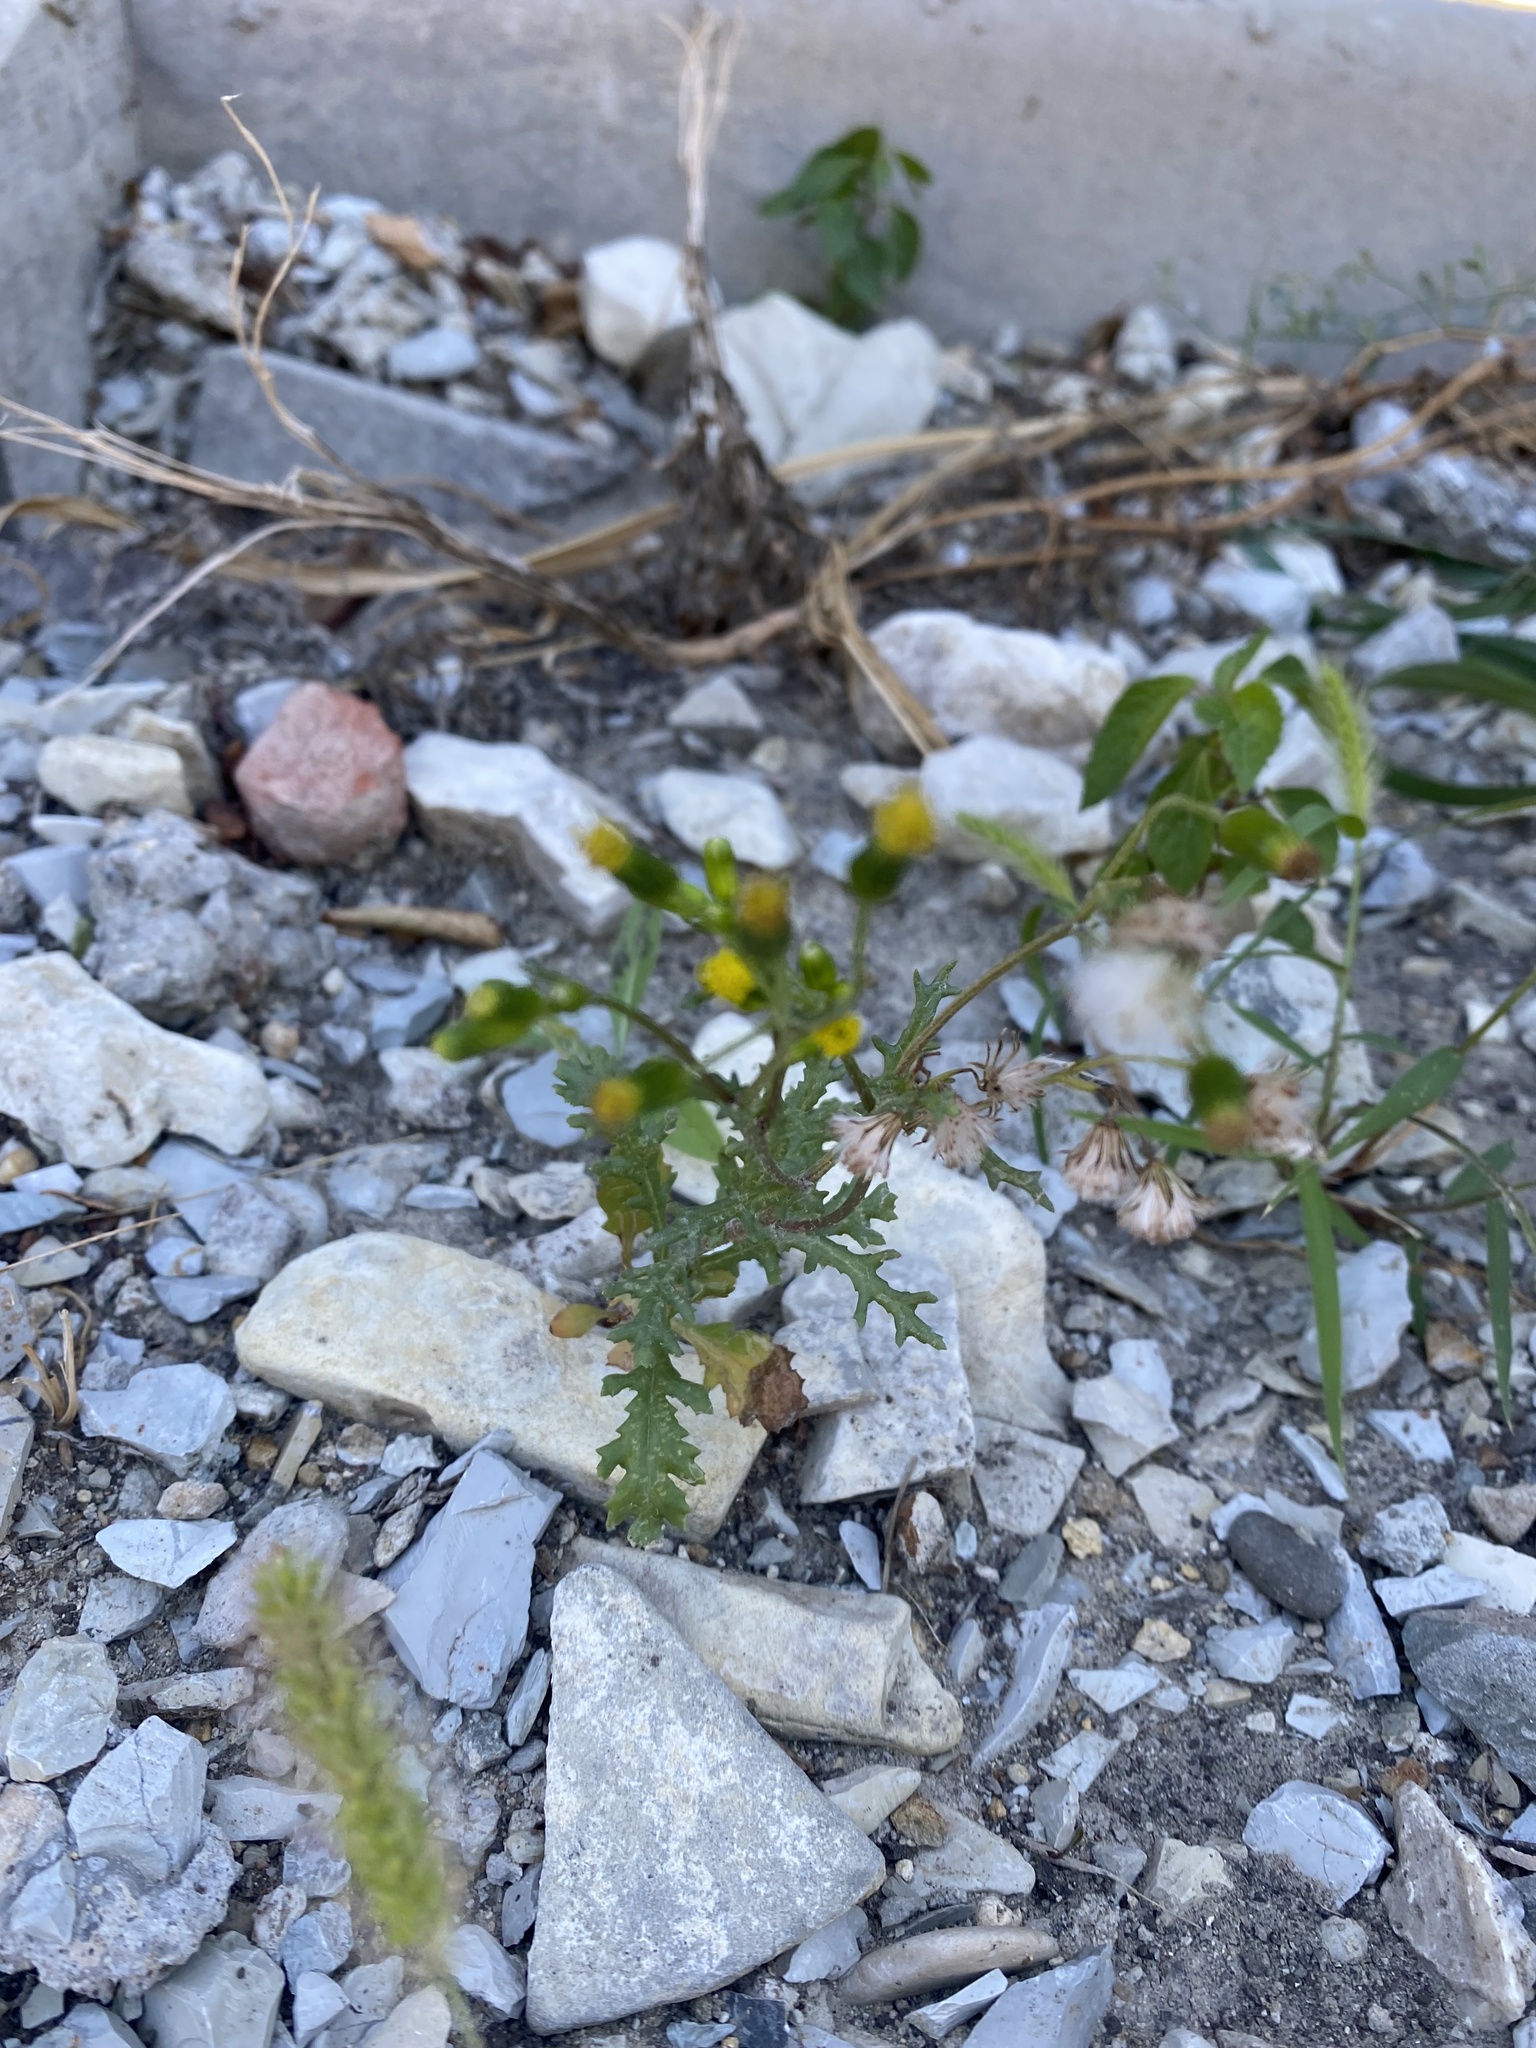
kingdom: Plantae
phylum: Tracheophyta
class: Magnoliopsida
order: Asterales
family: Asteraceae
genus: Senecio
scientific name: Senecio vulgaris
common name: Old-man-in-the-spring
